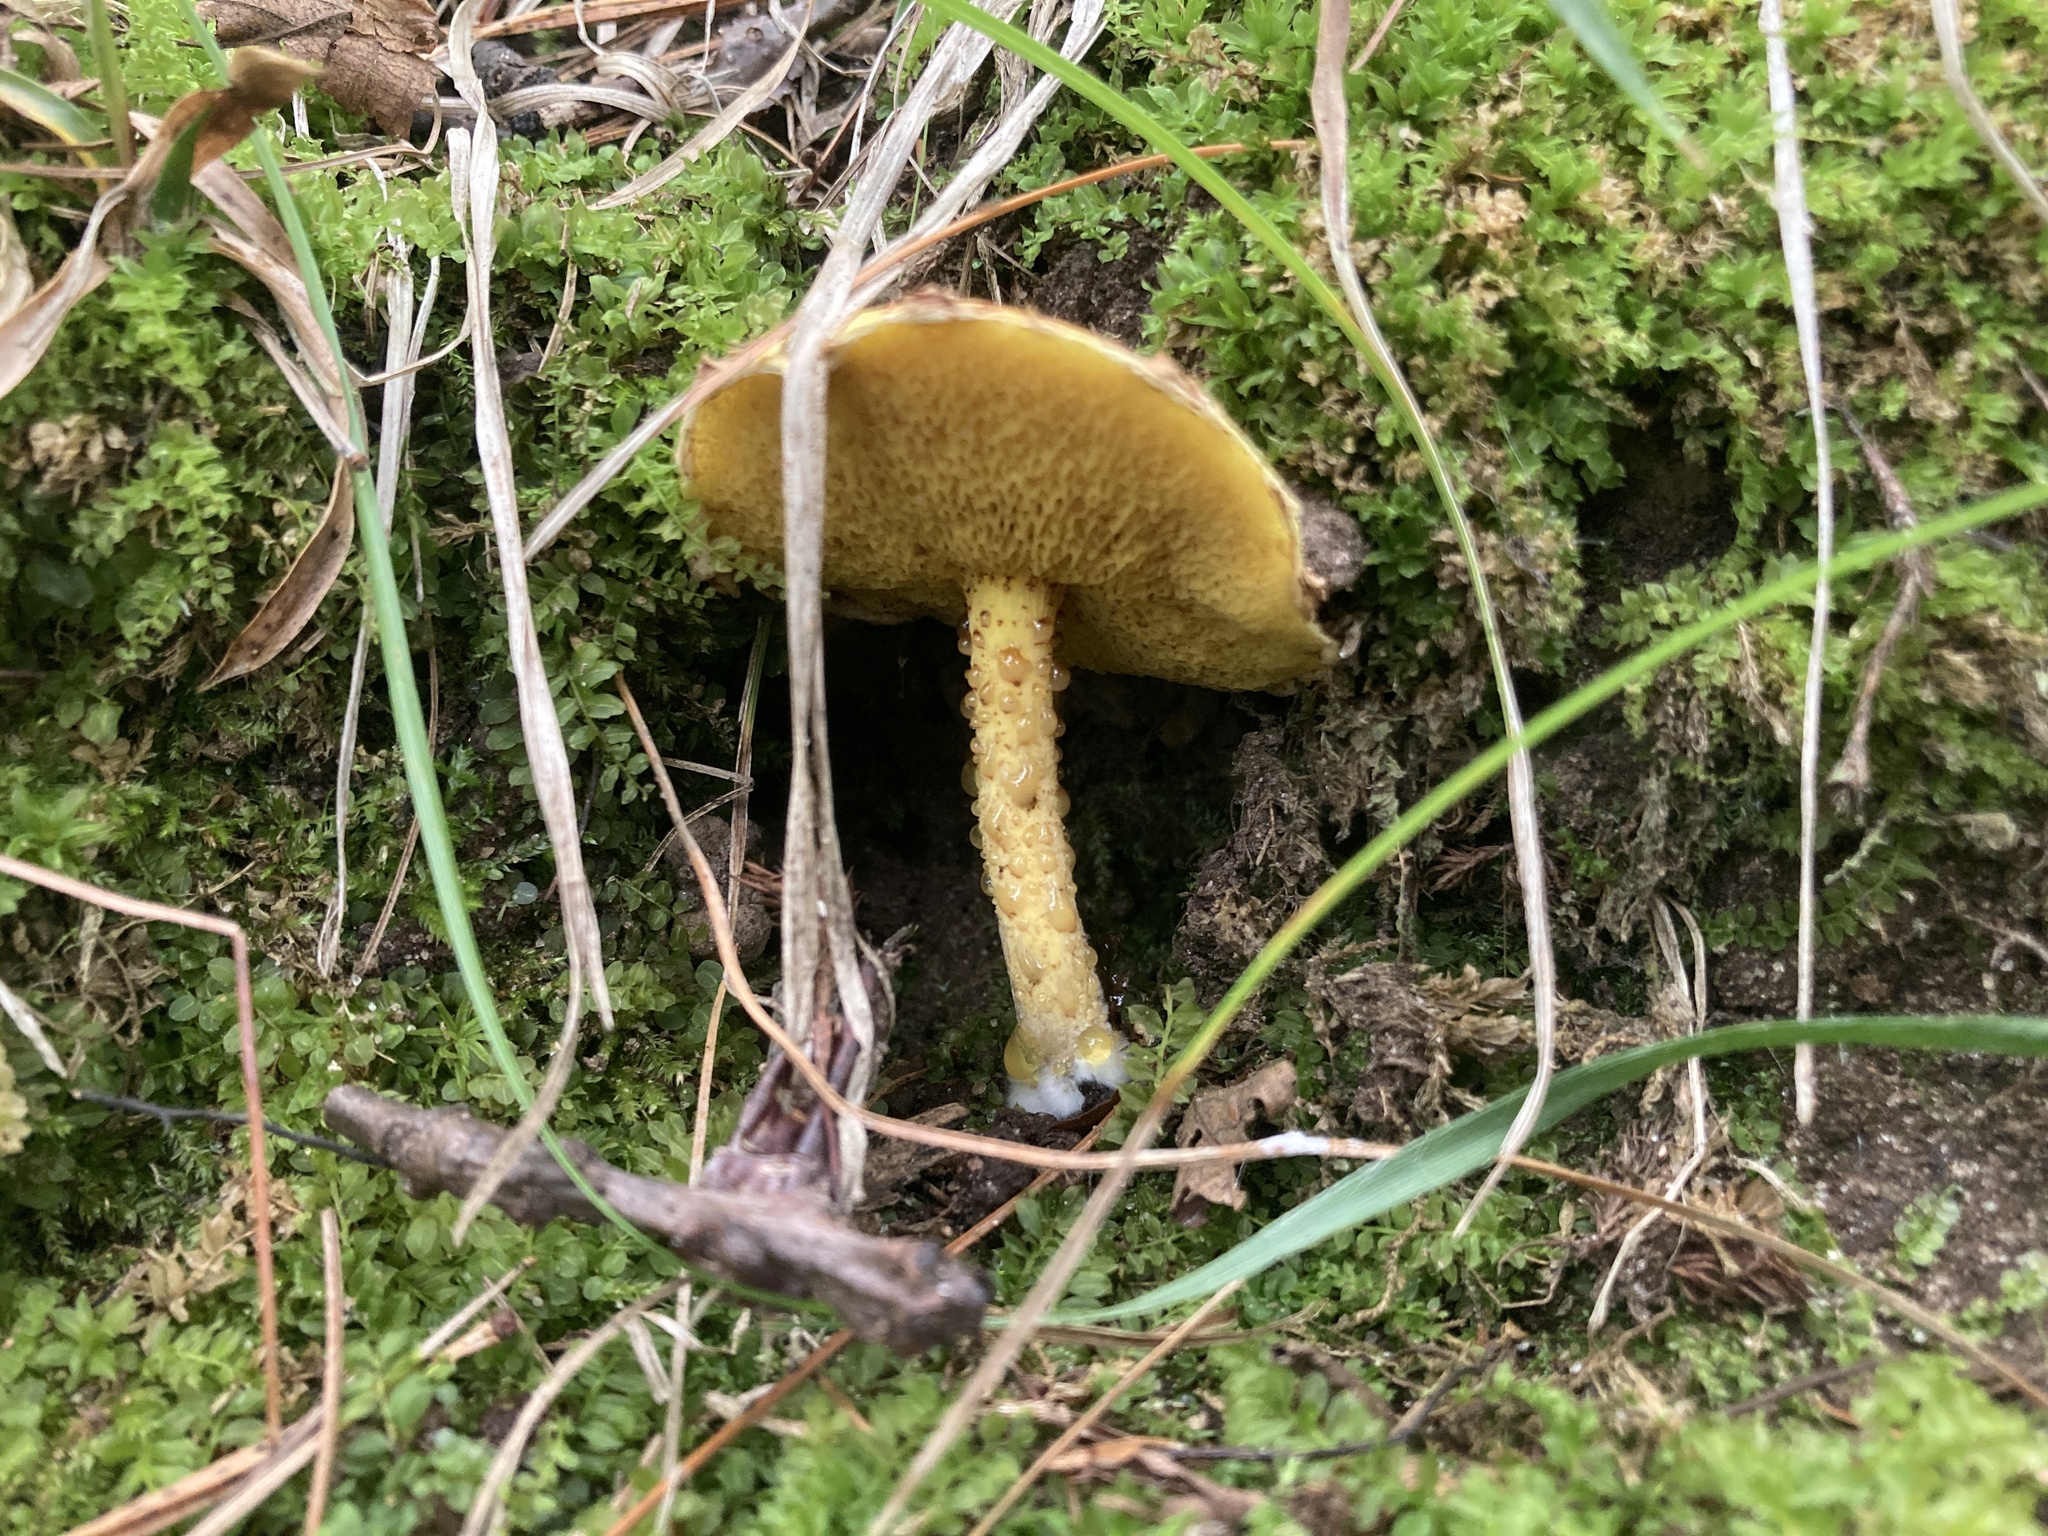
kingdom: Fungi
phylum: Basidiomycota
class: Agaricomycetes
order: Boletales
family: Suillaceae
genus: Suillus
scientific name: Suillus americanus
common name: Chicken fat mushroom
